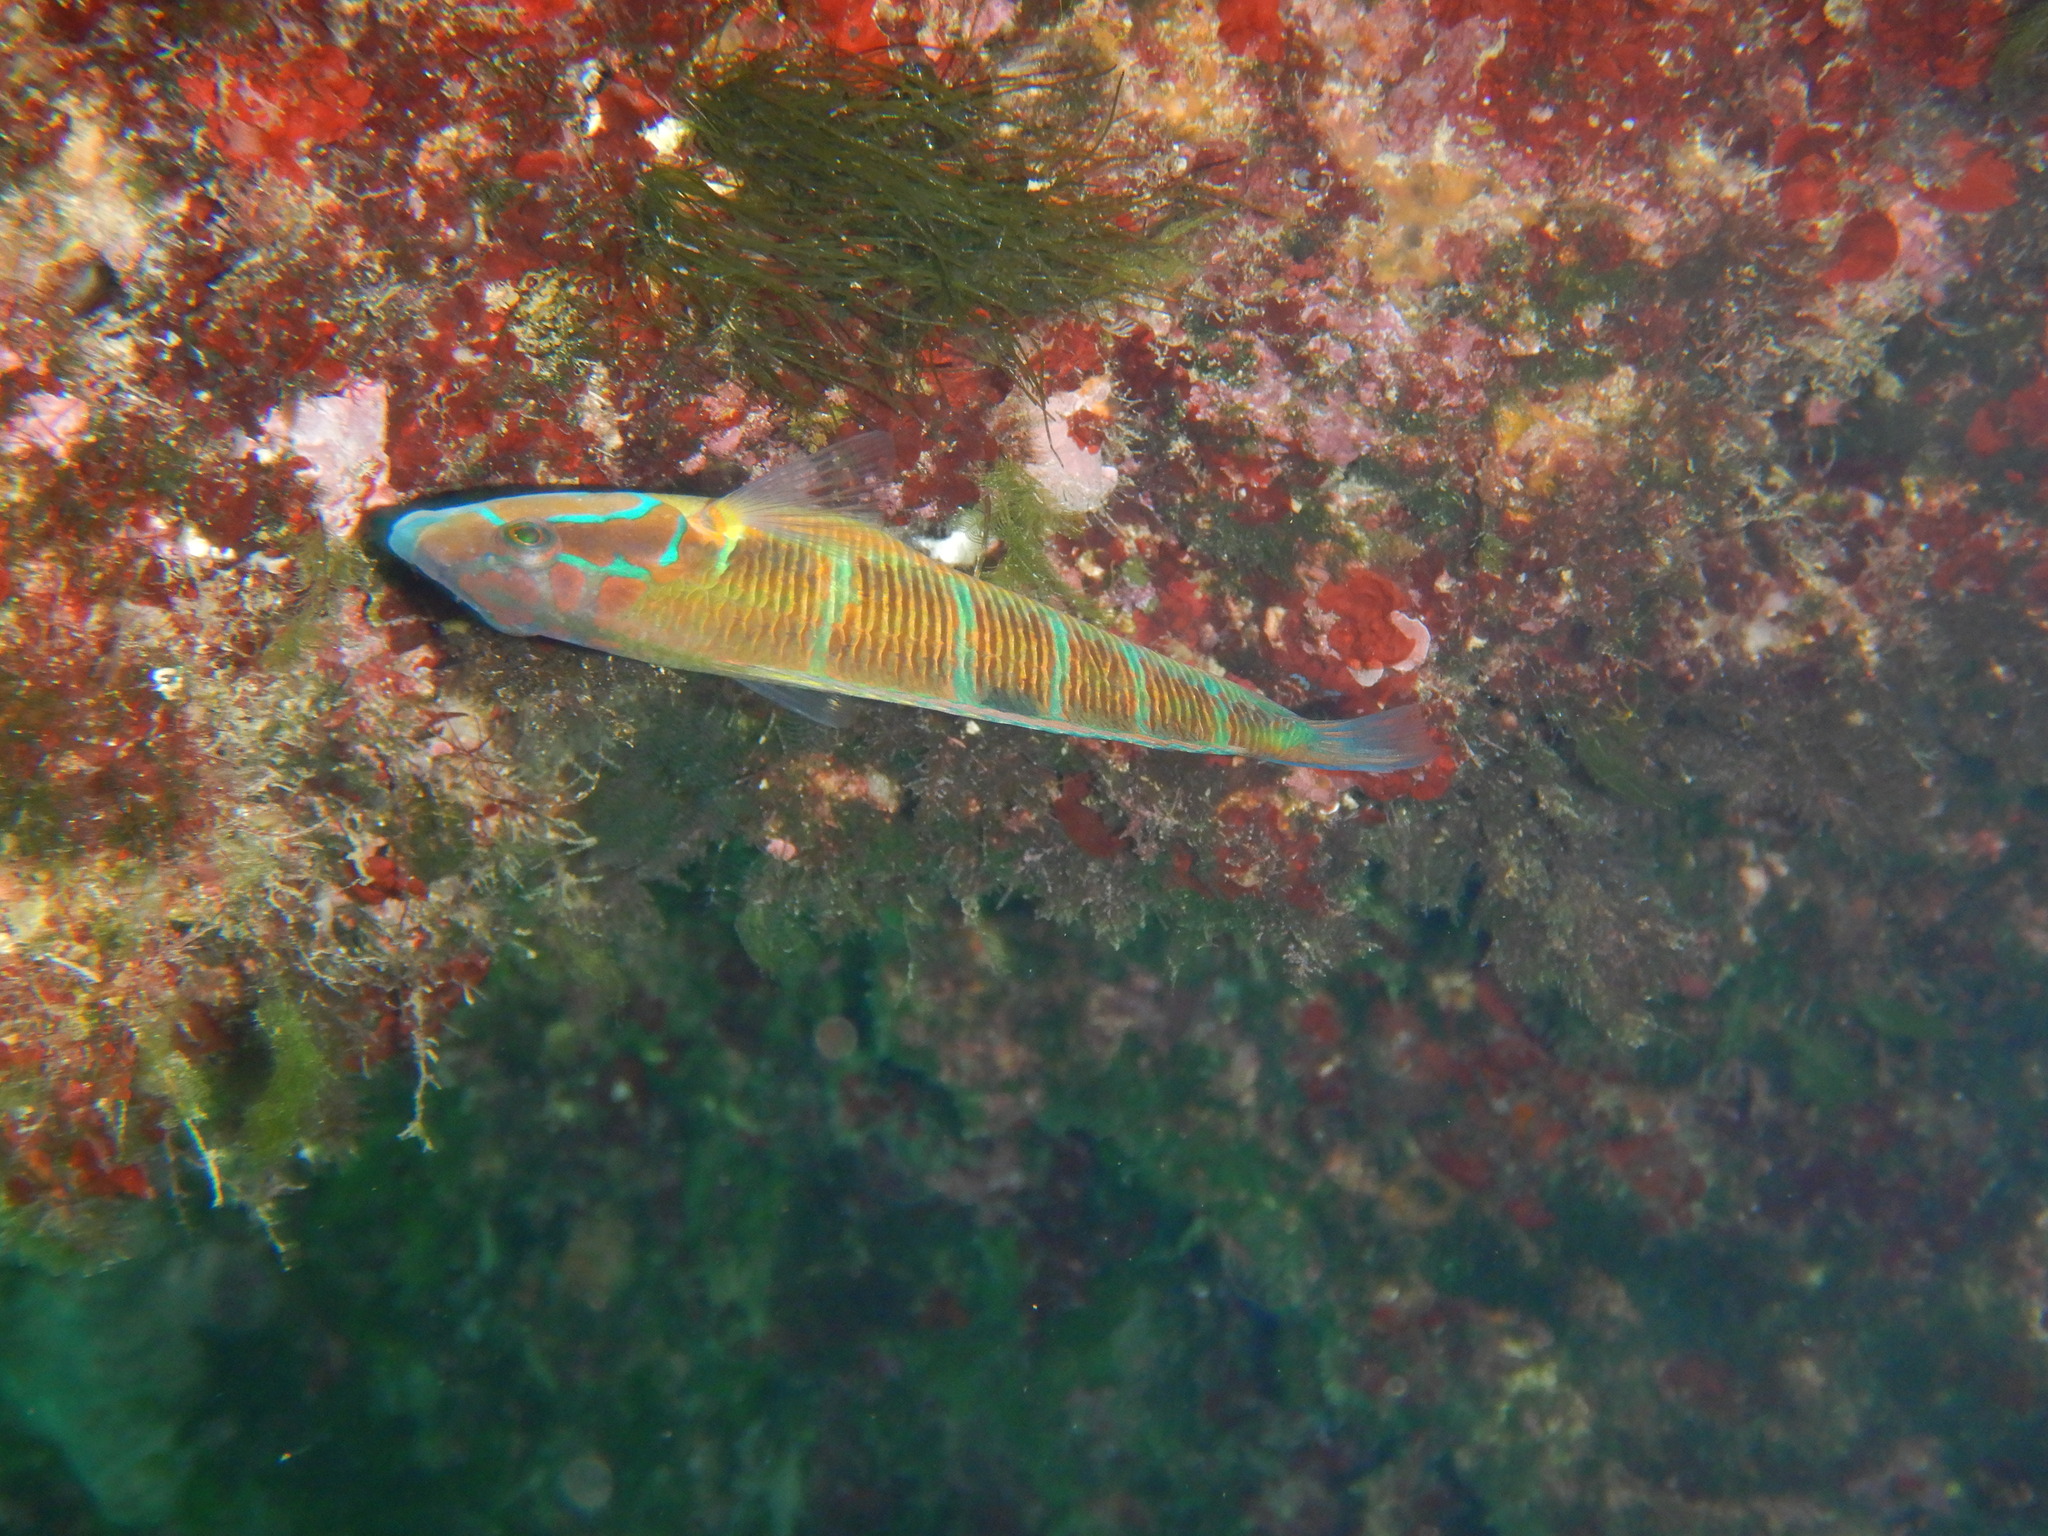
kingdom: Animalia
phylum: Chordata
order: Perciformes
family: Labridae
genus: Thalassoma
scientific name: Thalassoma pavo
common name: Ornate wrasse
